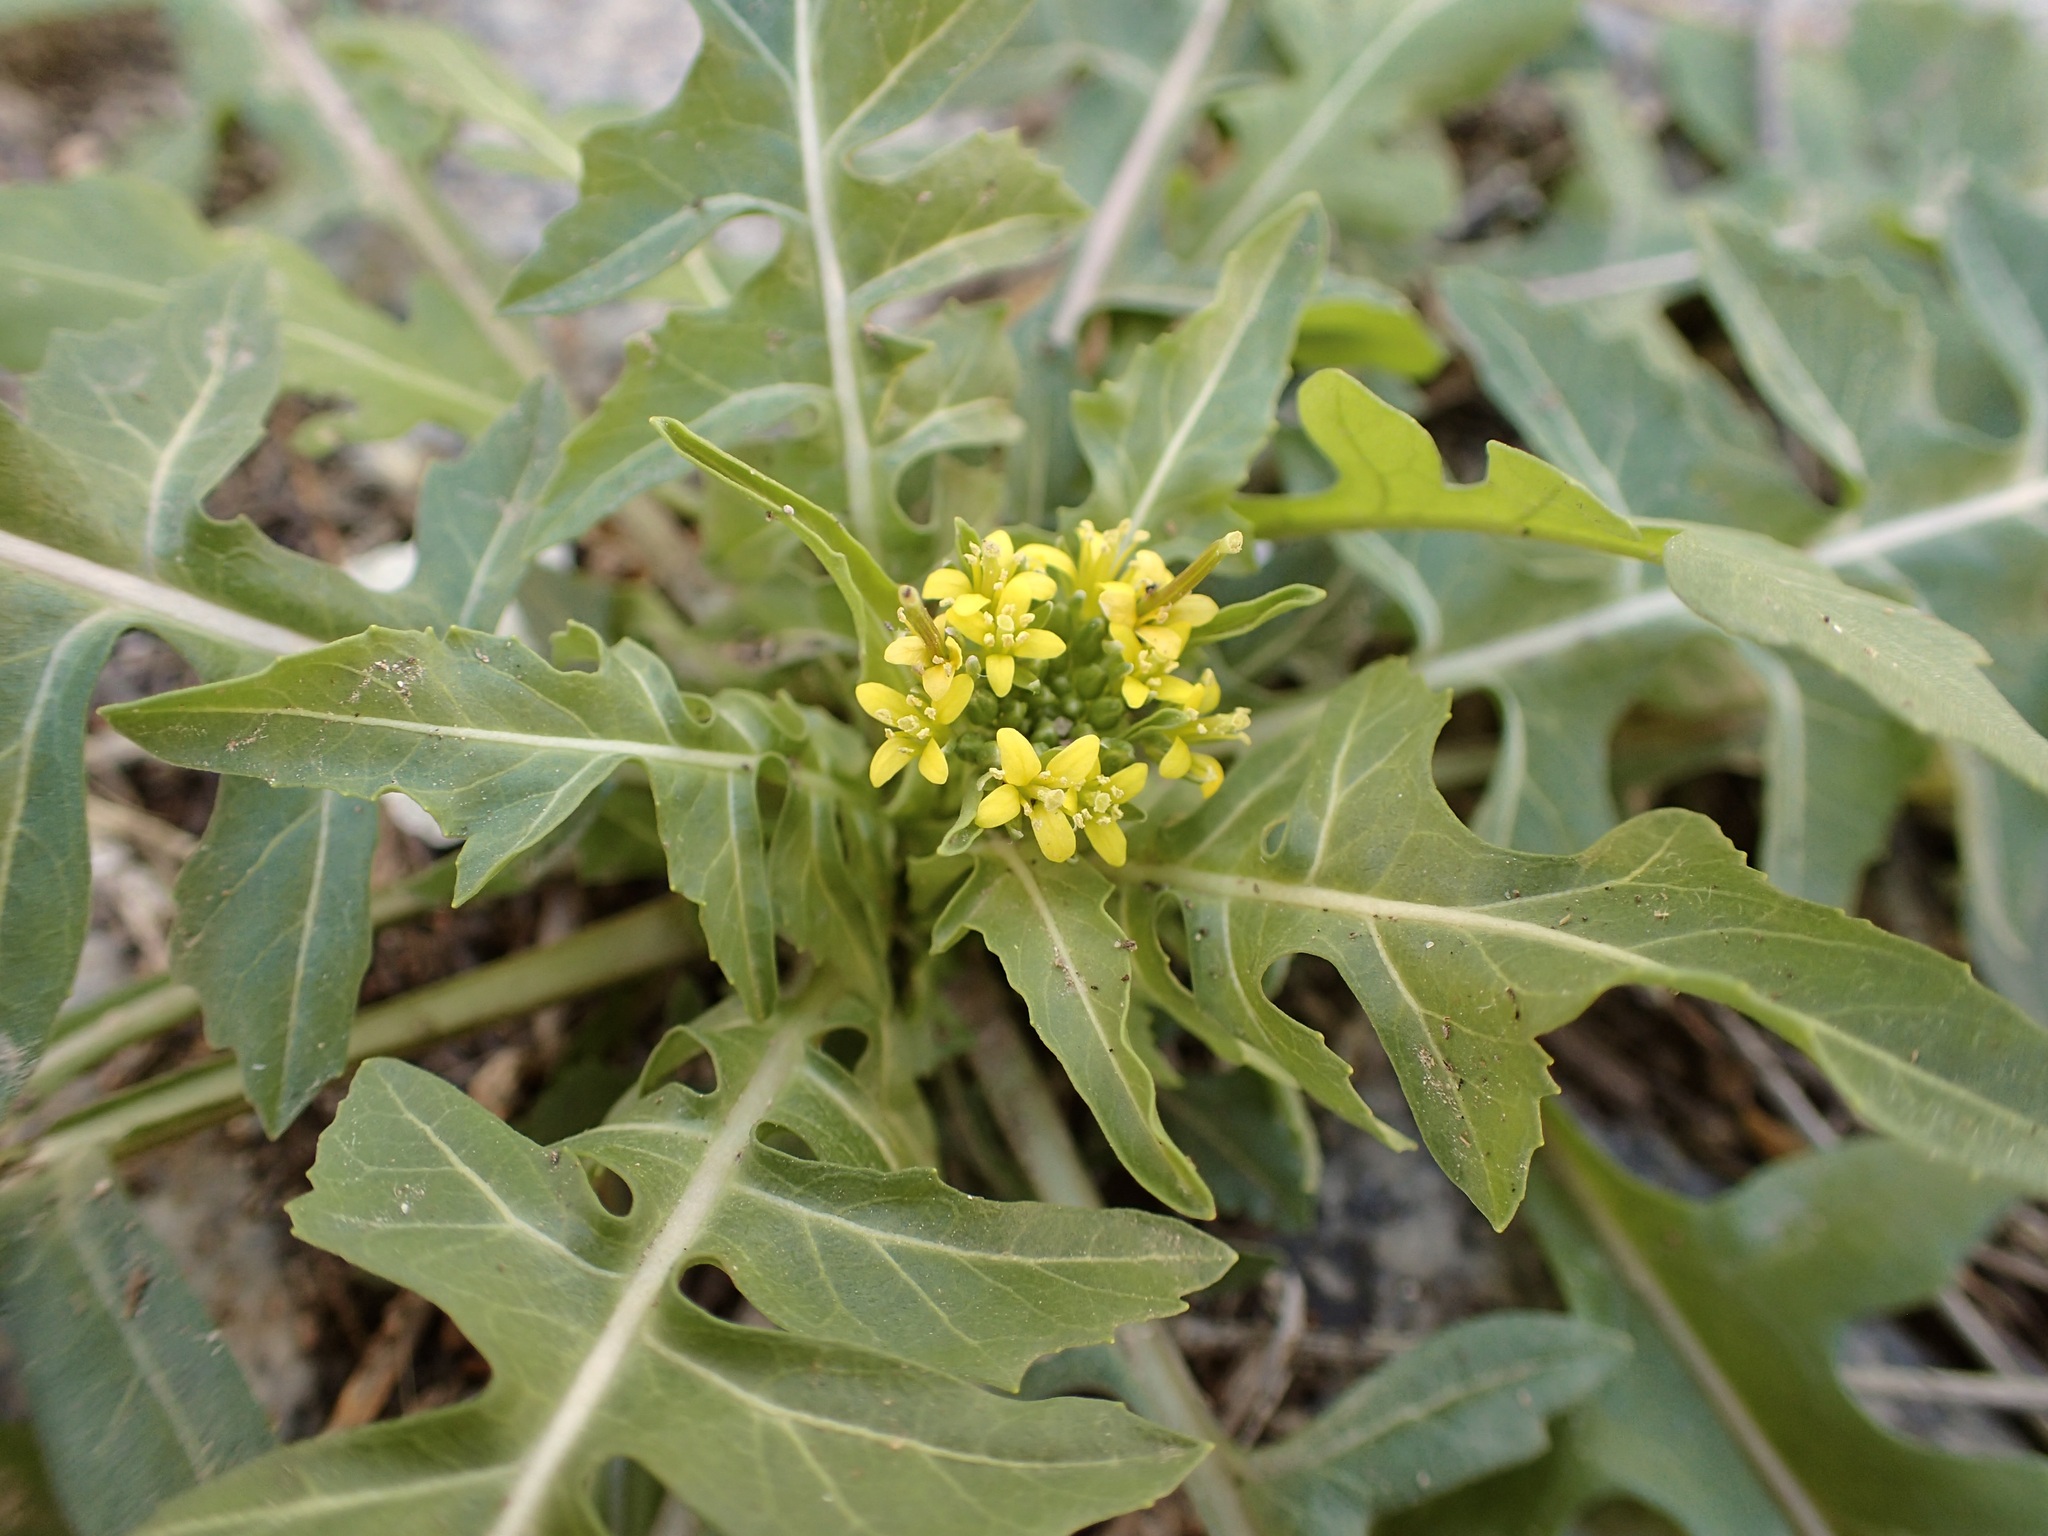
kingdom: Plantae
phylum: Tracheophyta
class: Magnoliopsida
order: Brassicales
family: Brassicaceae
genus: Sisymbrium
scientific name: Sisymbrium irio
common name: London rocket
